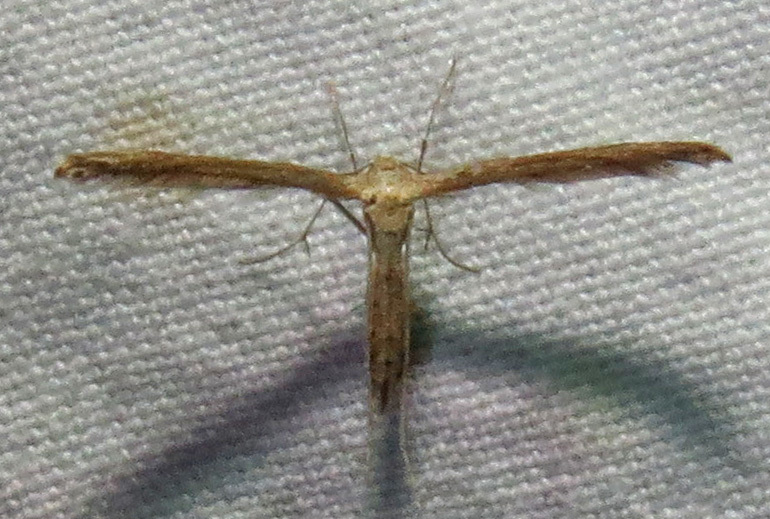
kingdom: Animalia
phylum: Arthropoda
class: Insecta
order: Lepidoptera
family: Pterophoridae
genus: Lioptilodes
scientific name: Lioptilodes albistriolatus
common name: Moth
